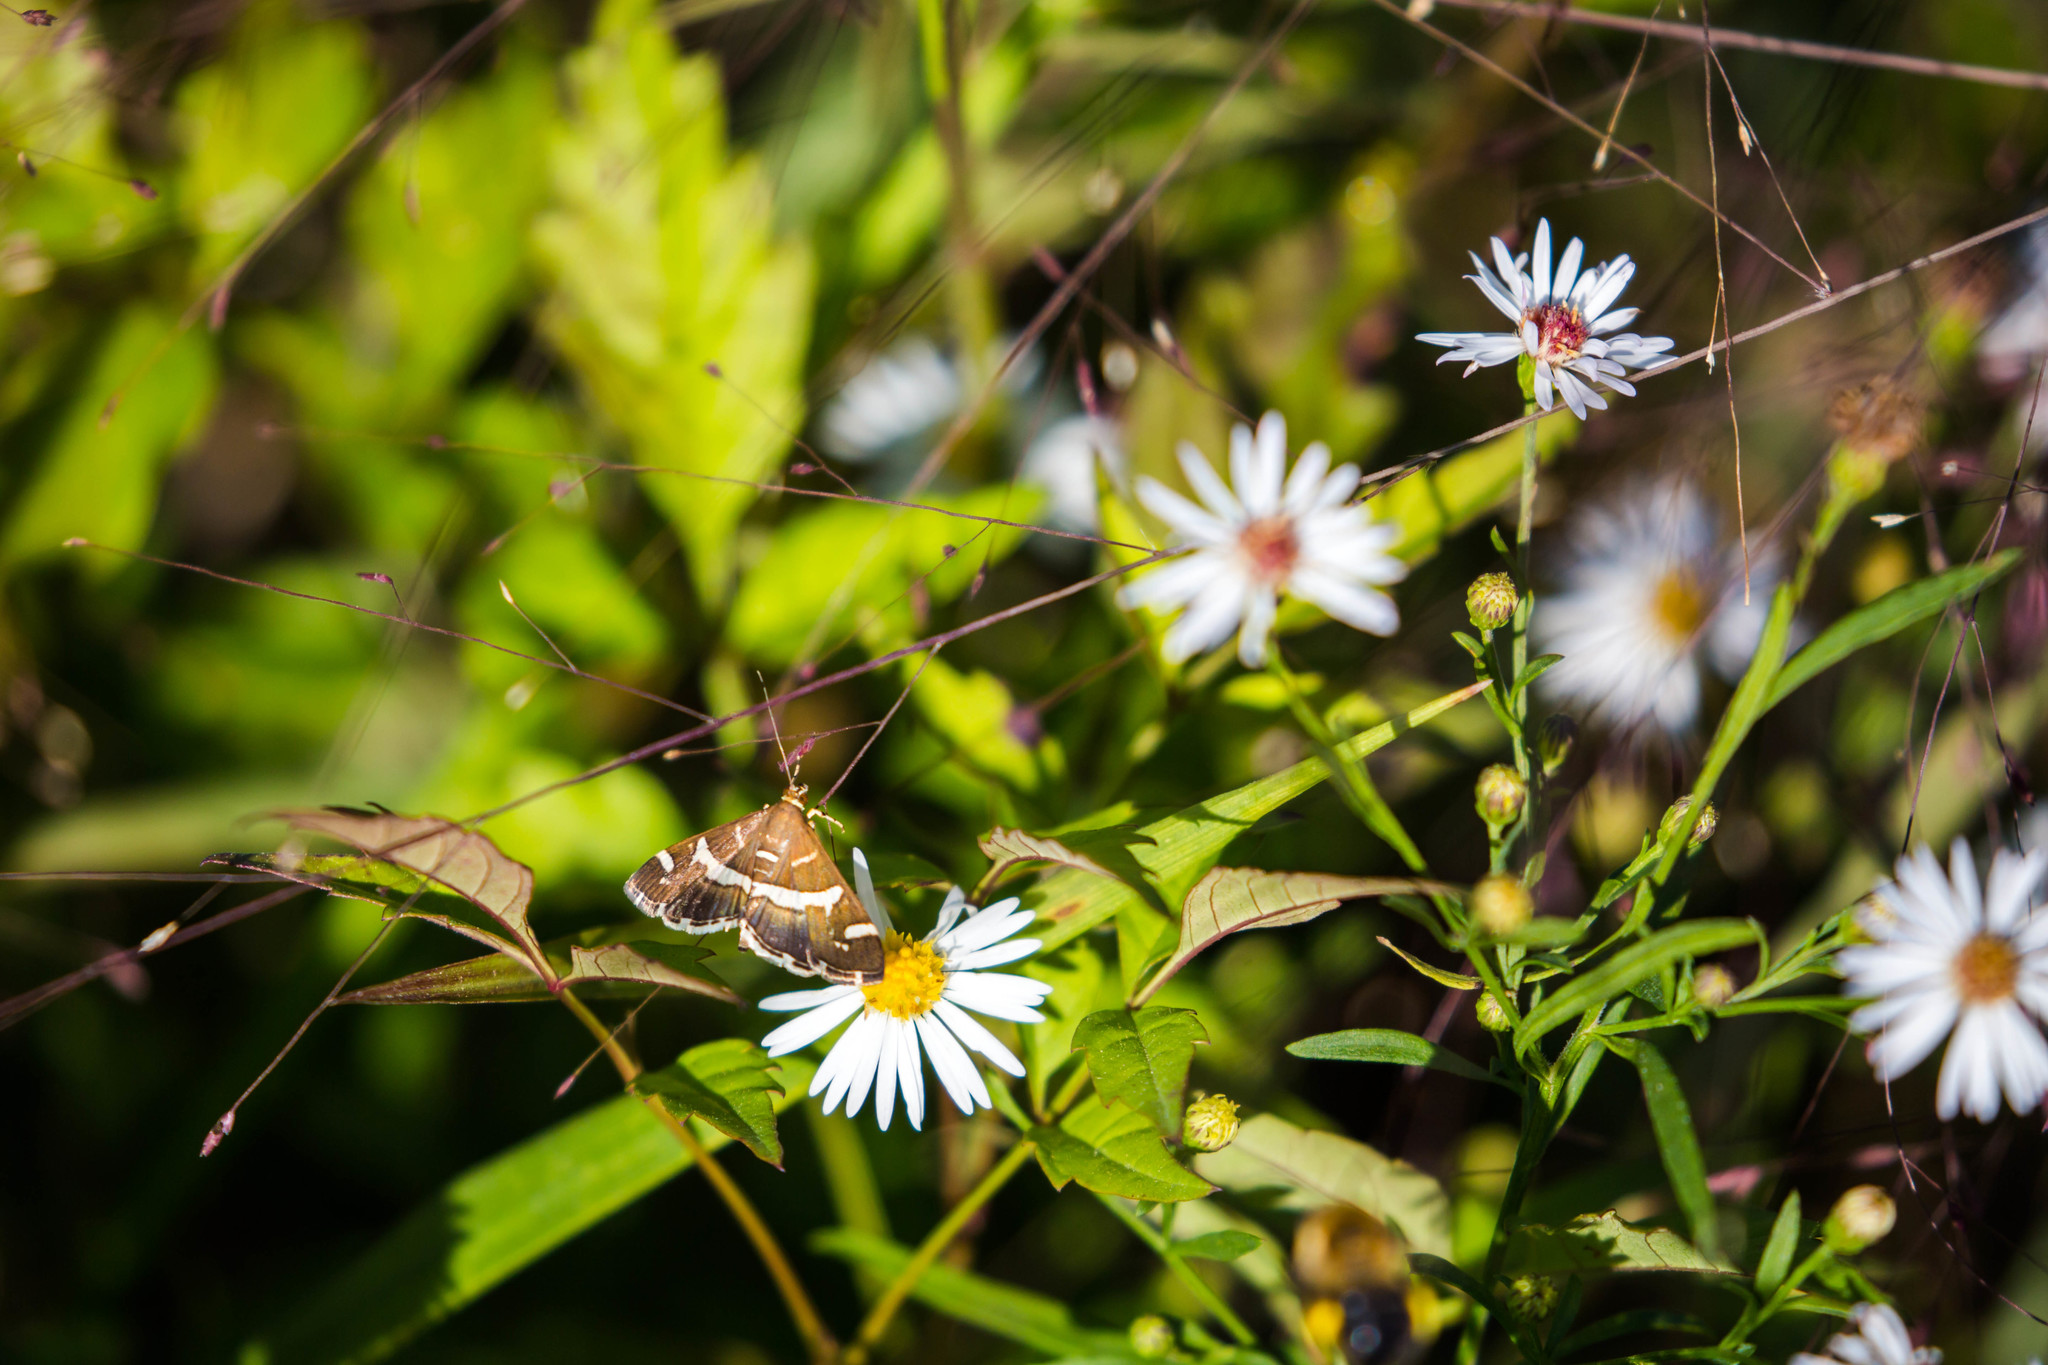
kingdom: Animalia
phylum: Arthropoda
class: Insecta
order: Lepidoptera
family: Crambidae
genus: Spoladea
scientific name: Spoladea recurvalis
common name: Beet webworm moth
